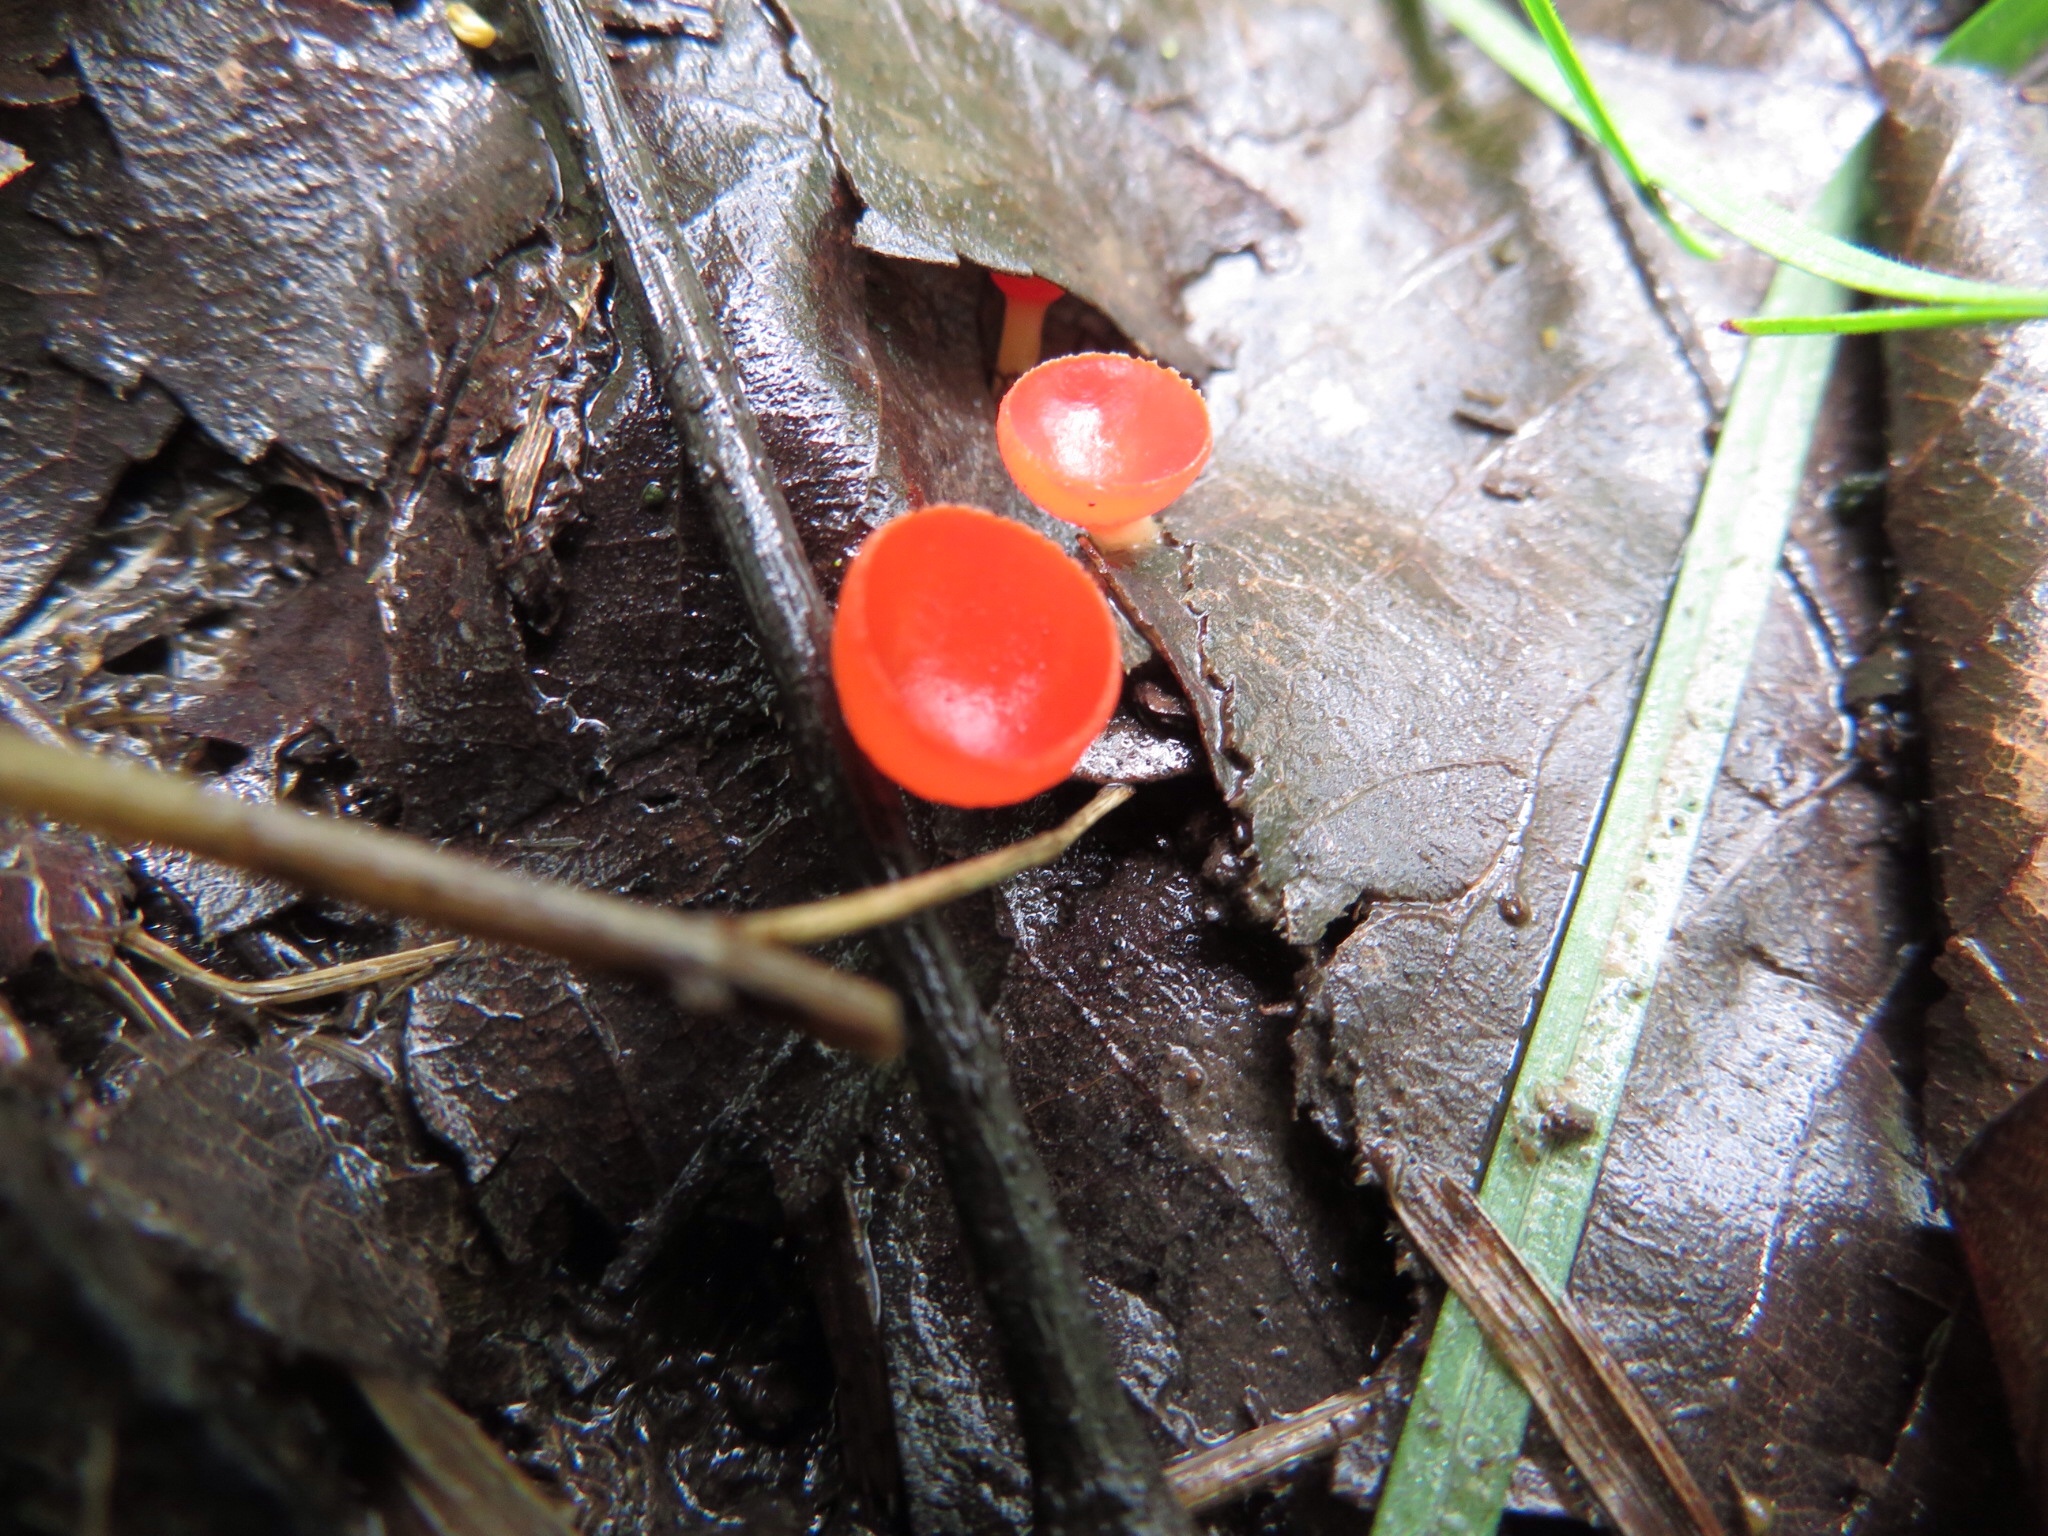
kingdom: Fungi
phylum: Ascomycota
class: Pezizomycetes
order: Pezizales
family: Sarcoscyphaceae
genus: Sarcoscypha
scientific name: Sarcoscypha occidentalis
